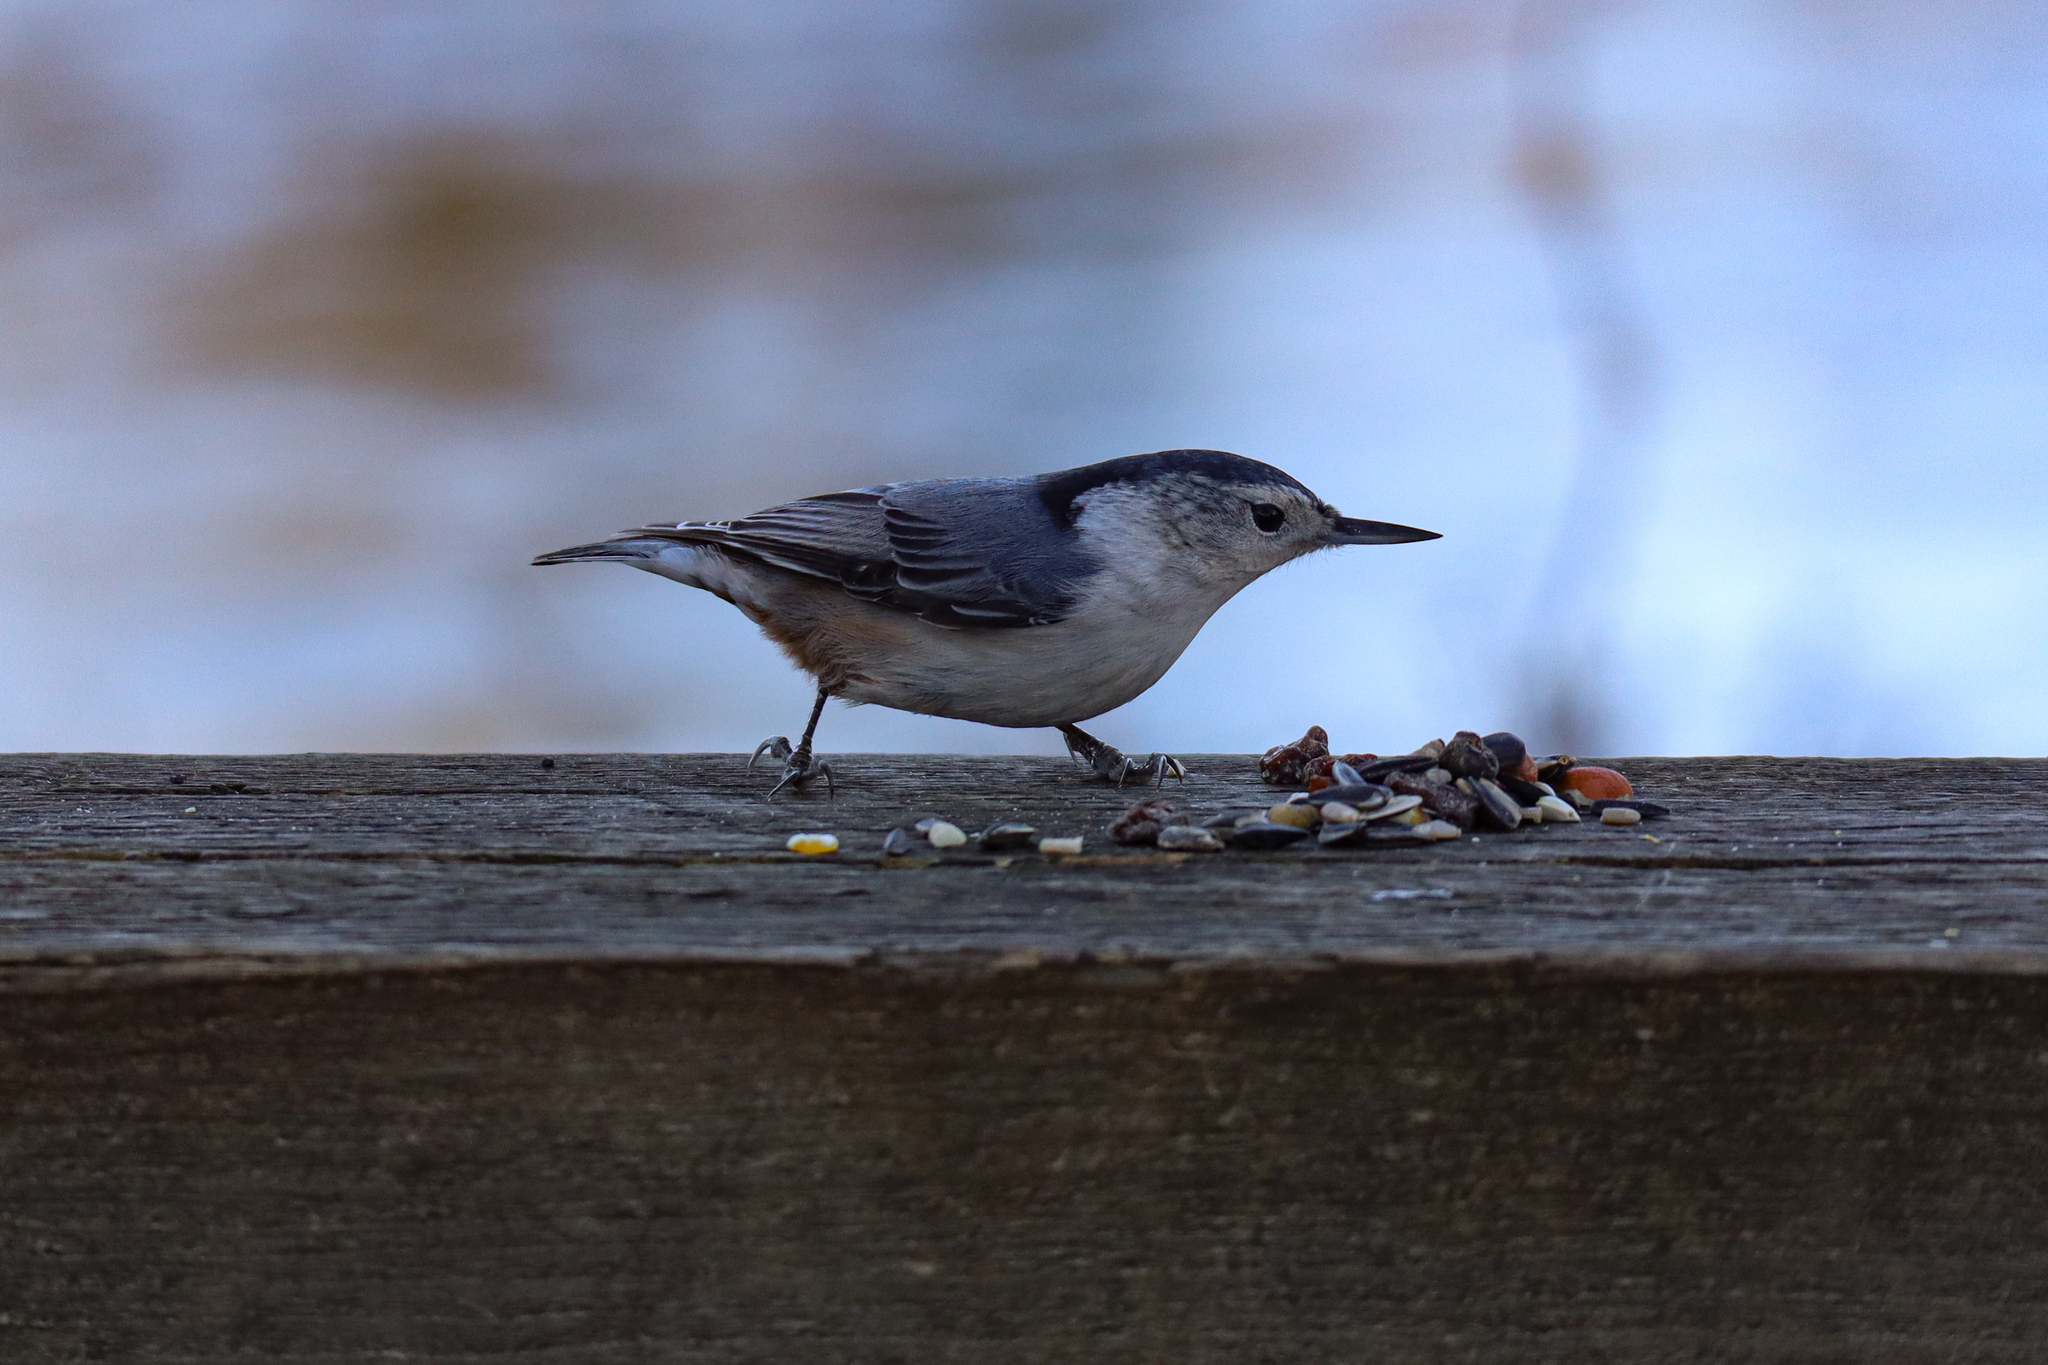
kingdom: Animalia
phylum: Chordata
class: Aves
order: Passeriformes
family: Sittidae
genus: Sitta
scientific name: Sitta carolinensis
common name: White-breasted nuthatch
